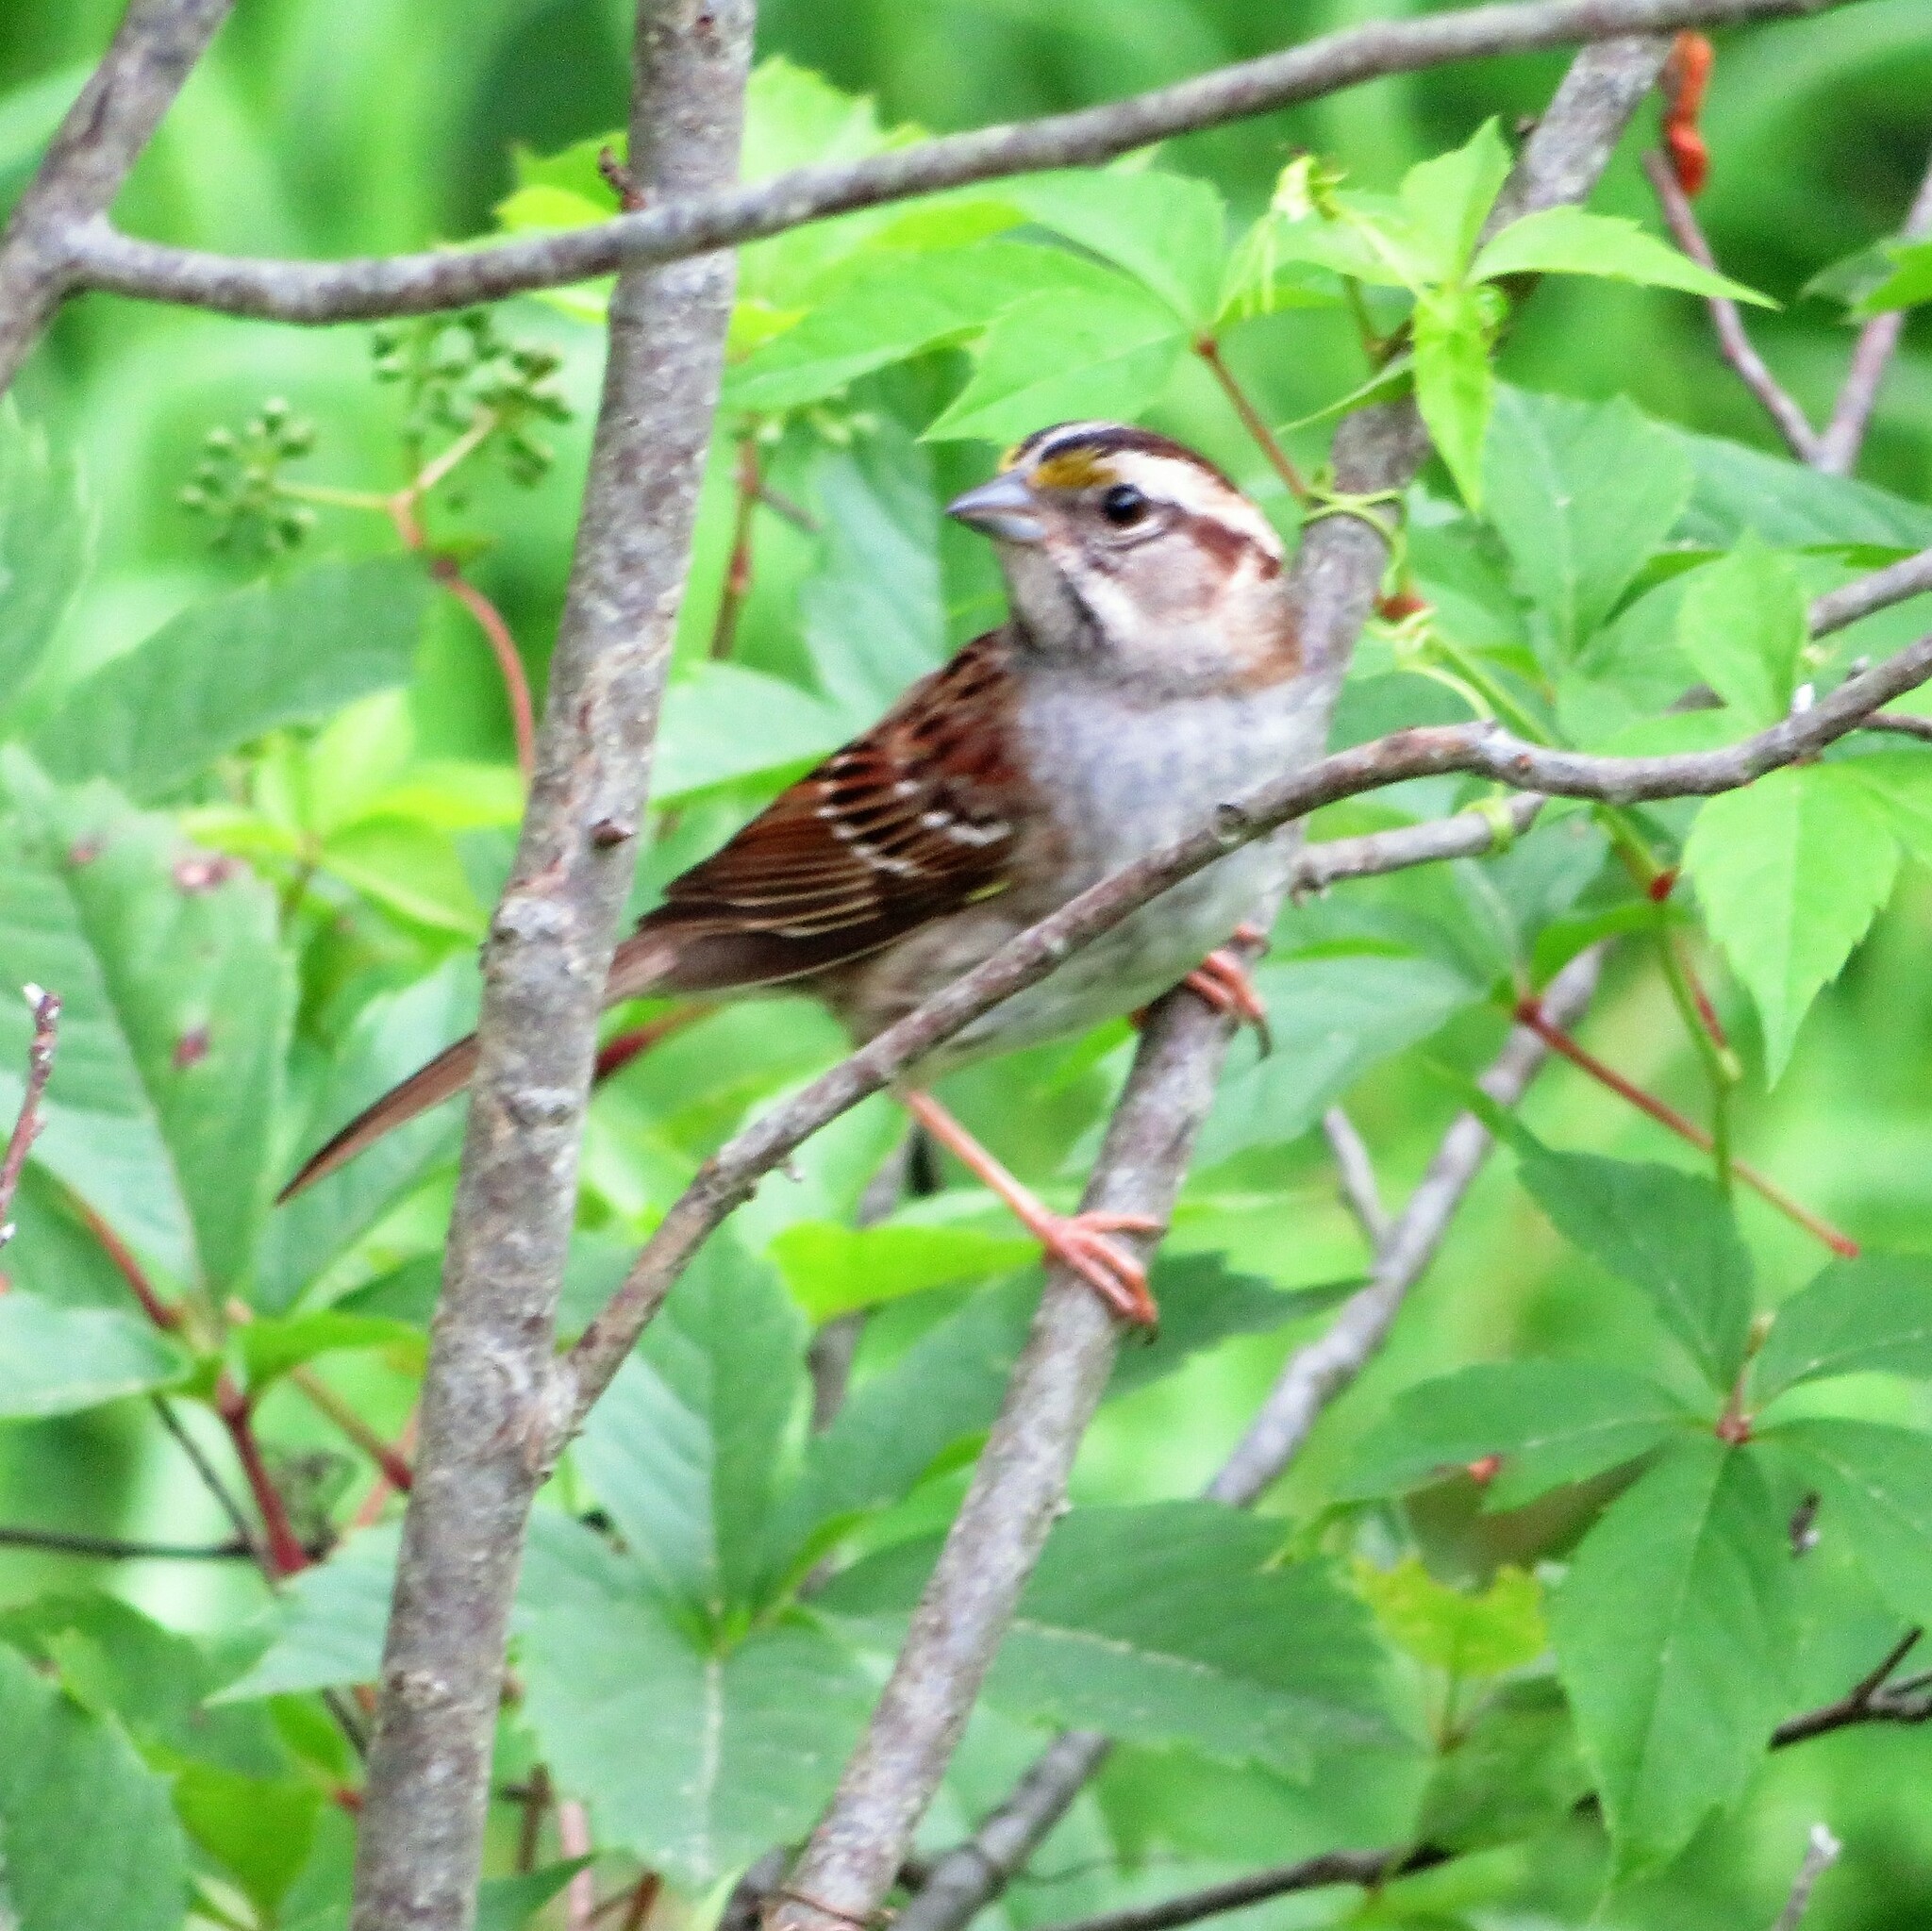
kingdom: Animalia
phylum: Chordata
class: Aves
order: Passeriformes
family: Passerellidae
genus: Zonotrichia
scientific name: Zonotrichia albicollis
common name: White-throated sparrow
